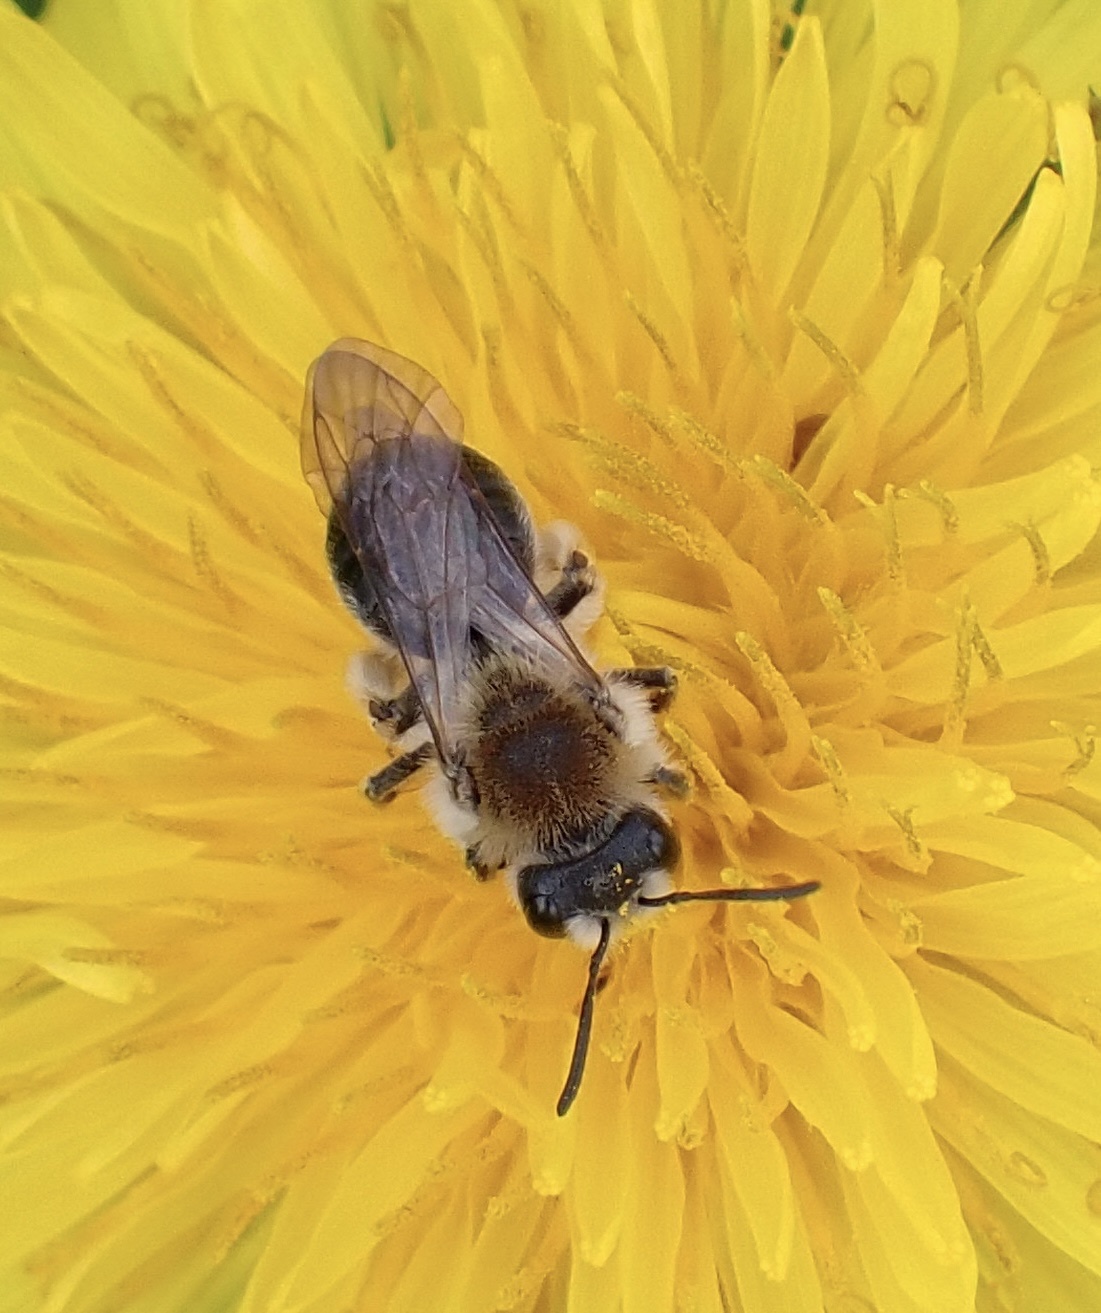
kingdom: Animalia
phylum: Arthropoda
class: Insecta
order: Hymenoptera
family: Andrenidae
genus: Andrena
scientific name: Andrena haemorrhoa
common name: Early mining bee
